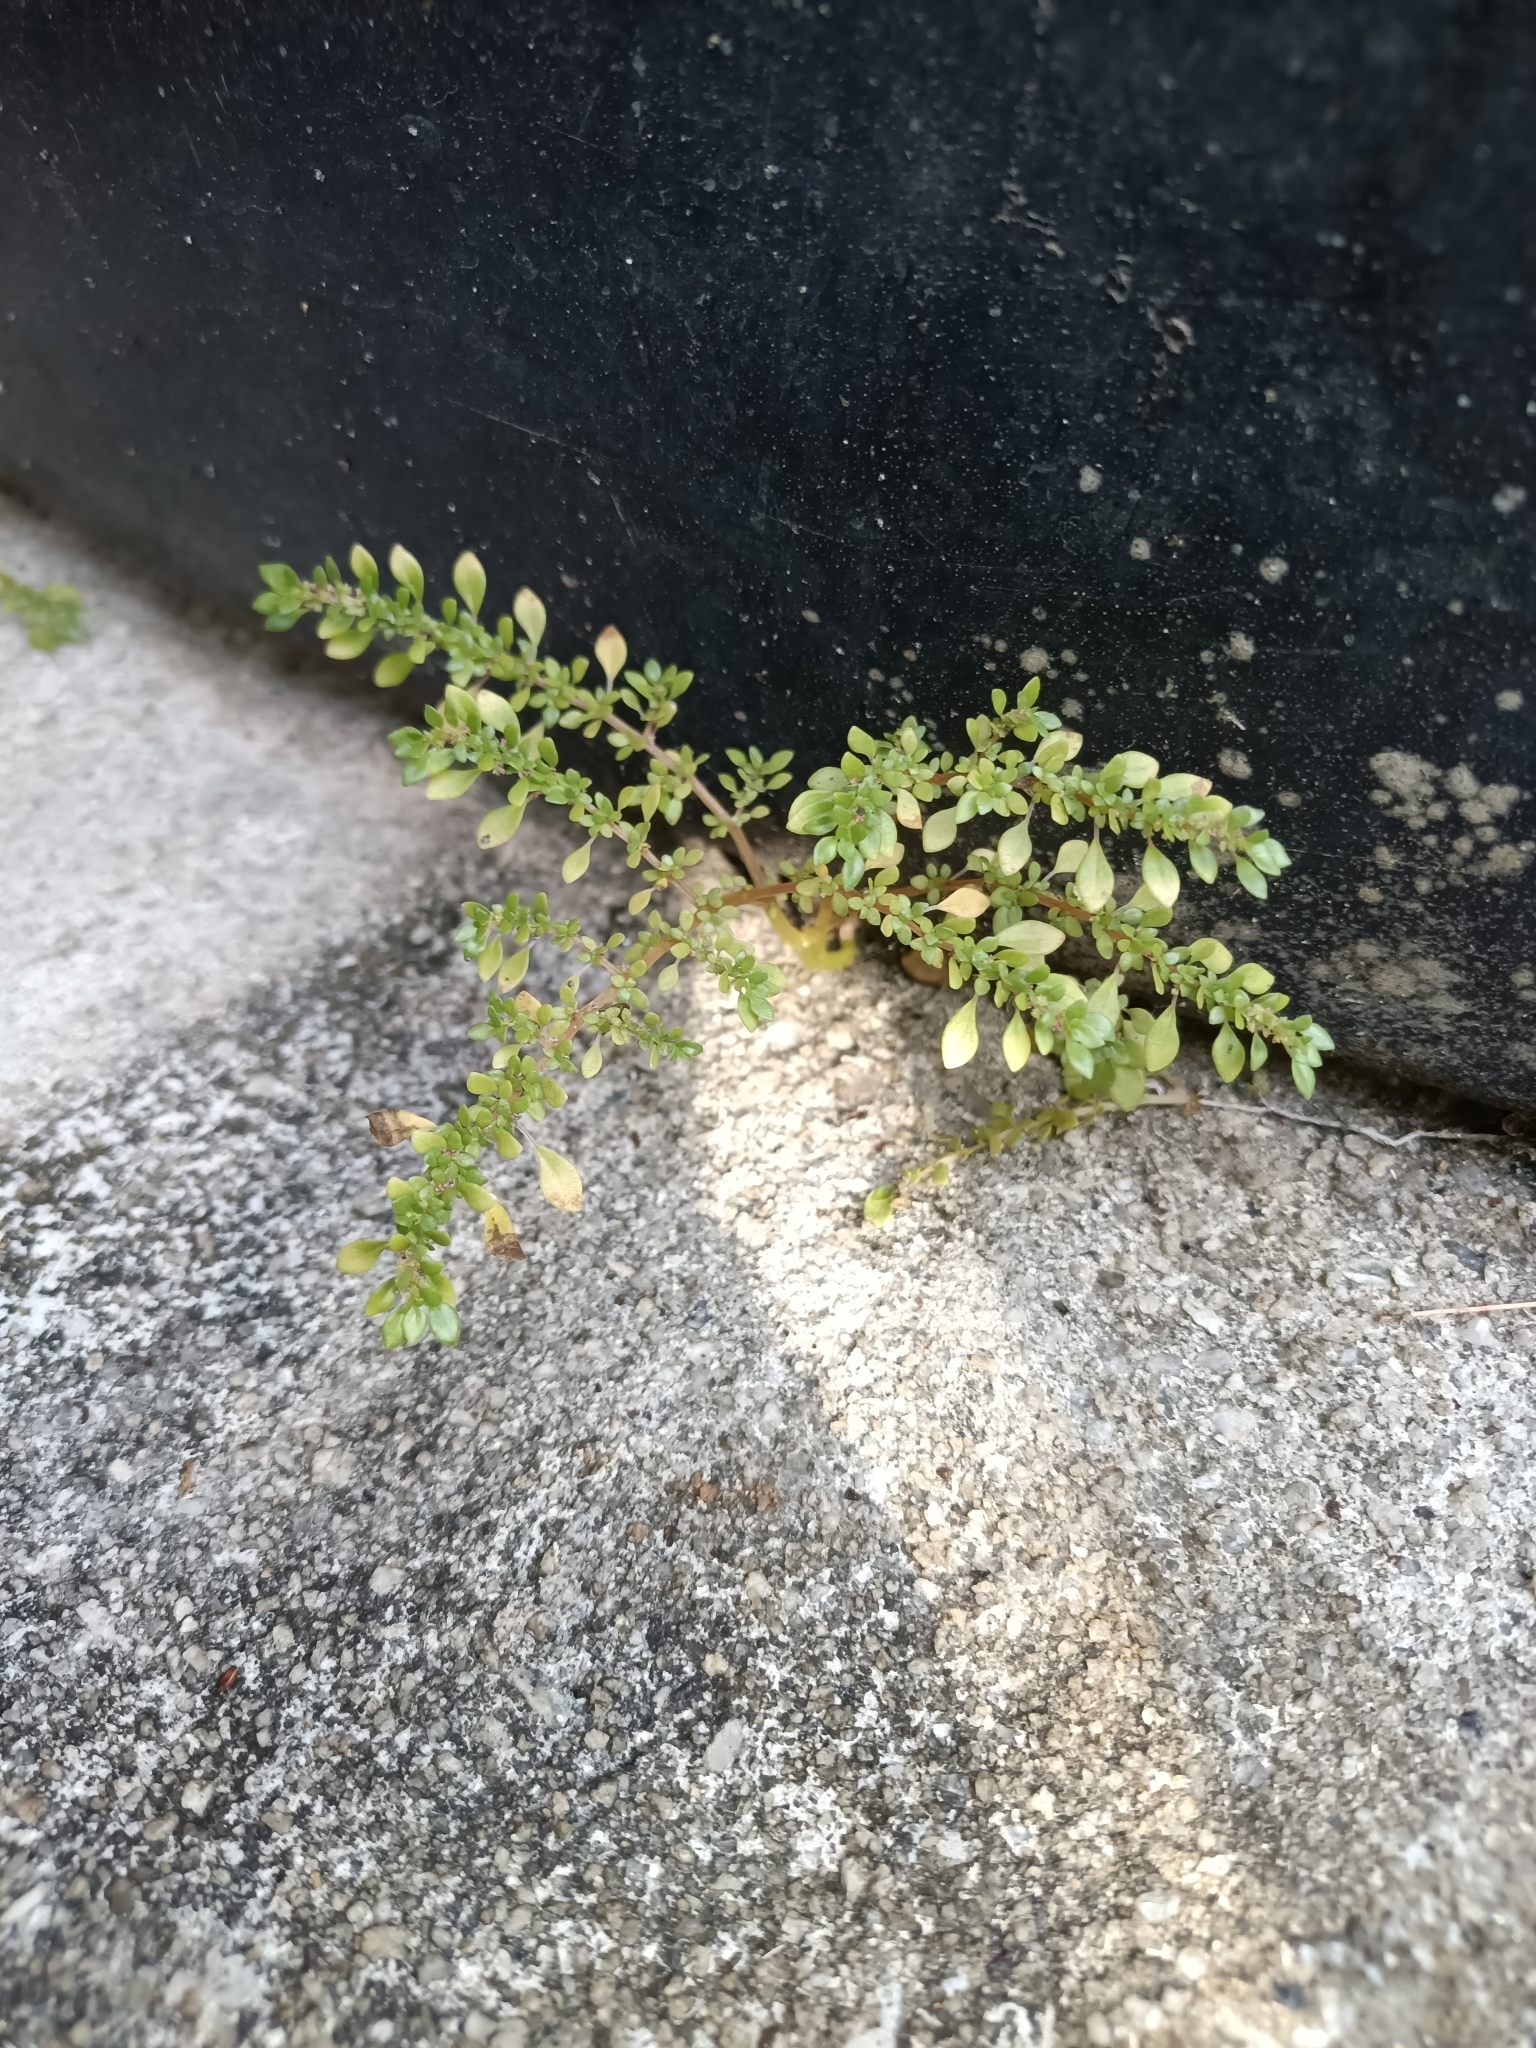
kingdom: Plantae
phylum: Tracheophyta
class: Magnoliopsida
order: Rosales
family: Urticaceae
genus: Pilea
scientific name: Pilea microphylla
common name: Artillery-plant
